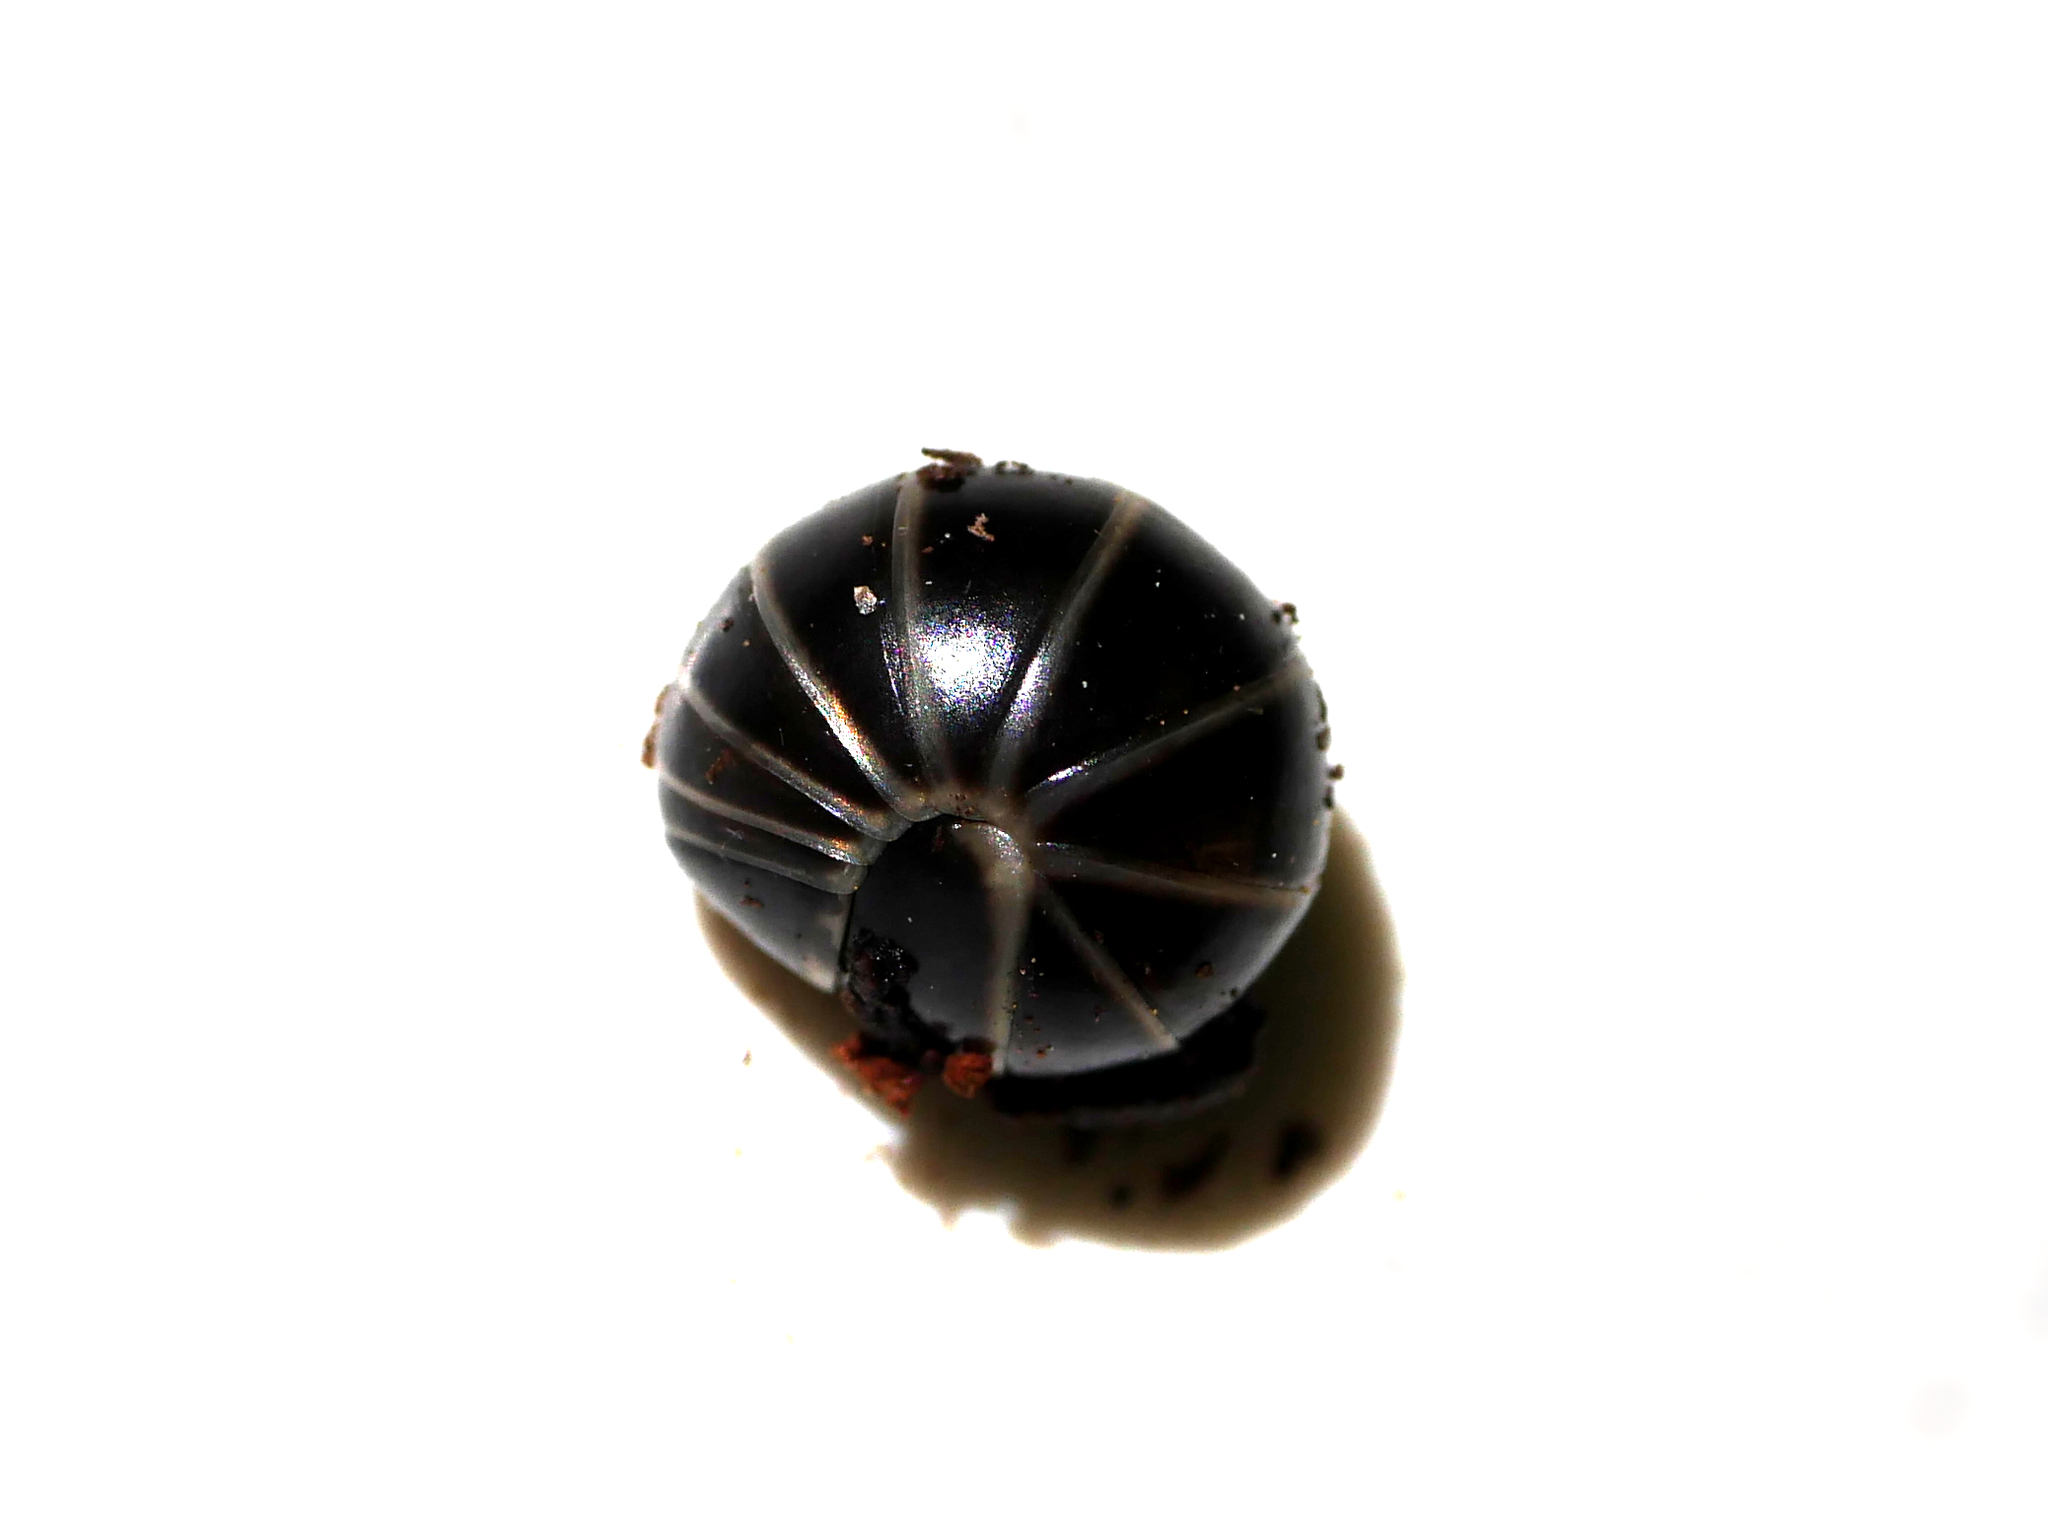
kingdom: Animalia
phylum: Arthropoda
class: Diplopoda
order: Glomerida
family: Glomeridae
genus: Glomeris
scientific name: Glomeris marginata
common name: Bordered pill millipede
